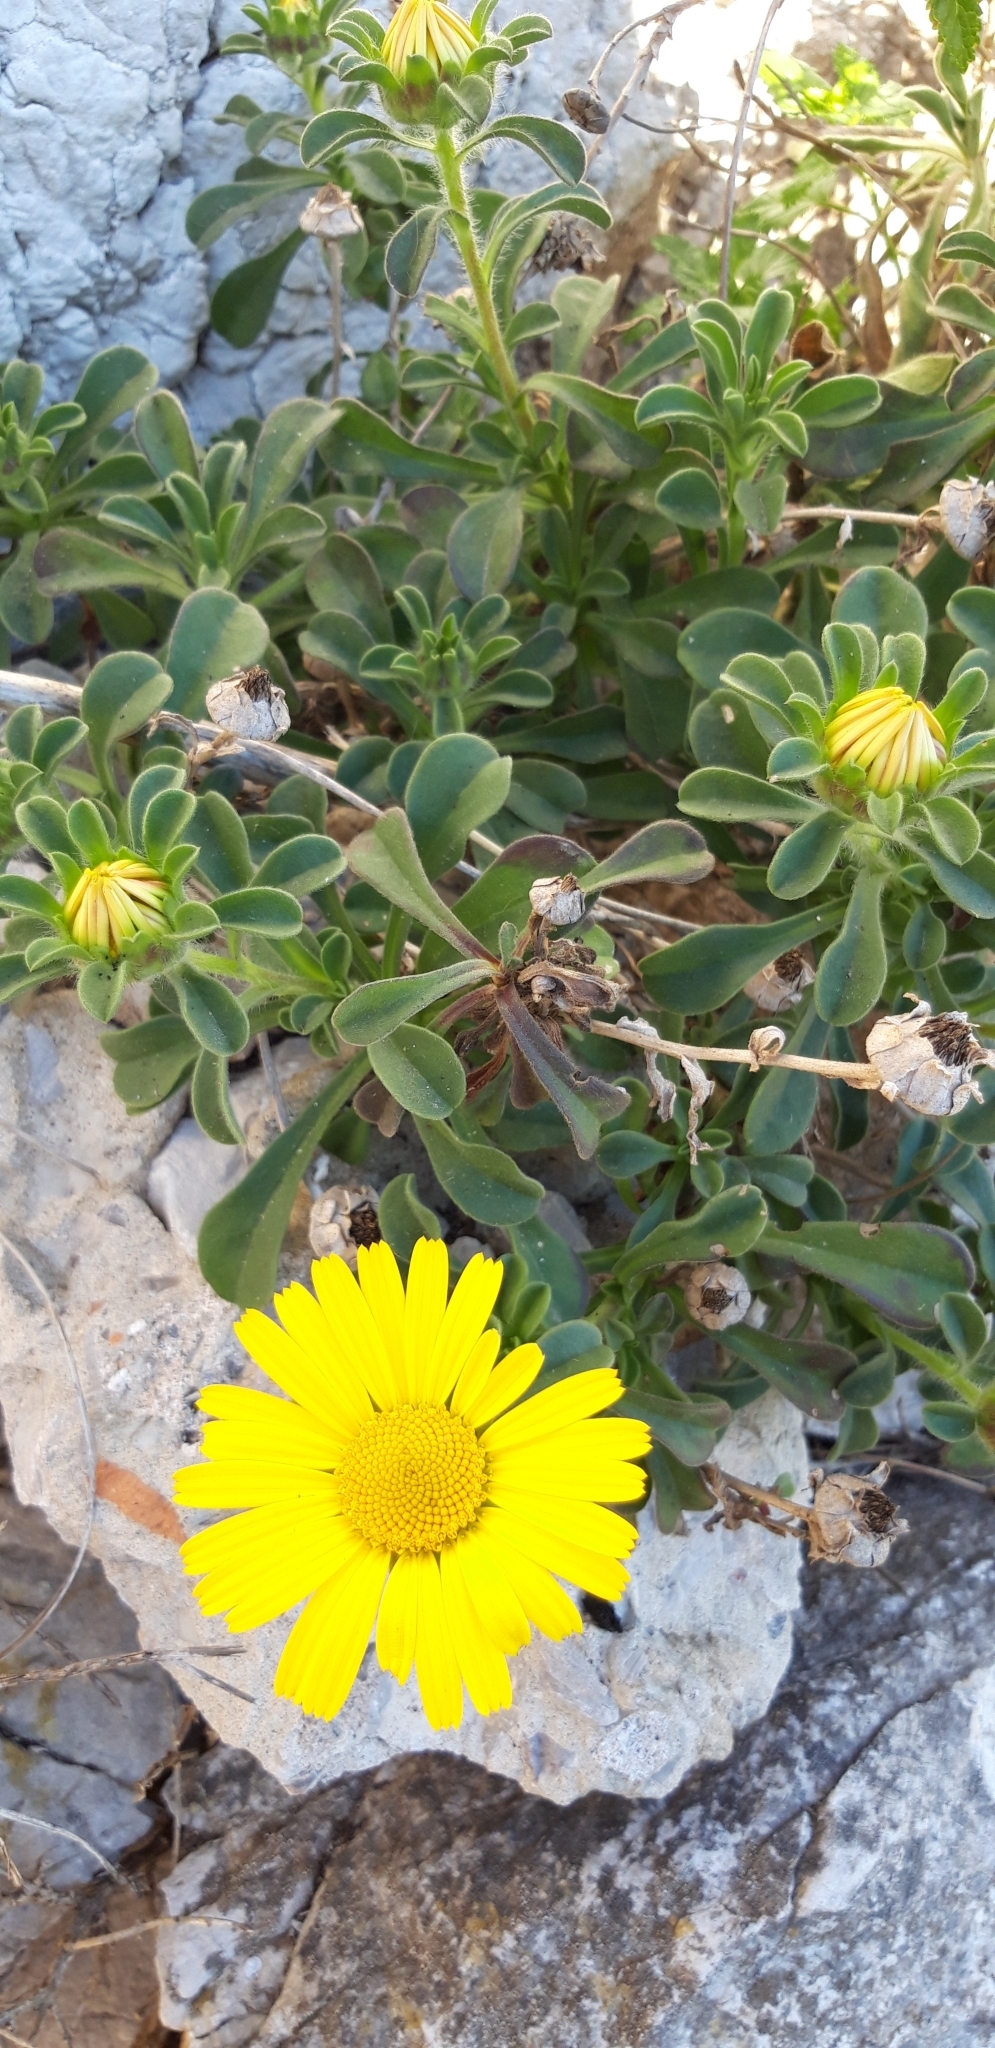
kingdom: Plantae
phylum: Tracheophyta
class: Magnoliopsida
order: Asterales
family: Asteraceae
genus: Pallenis
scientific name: Pallenis maritima
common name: Golden coin daisy
